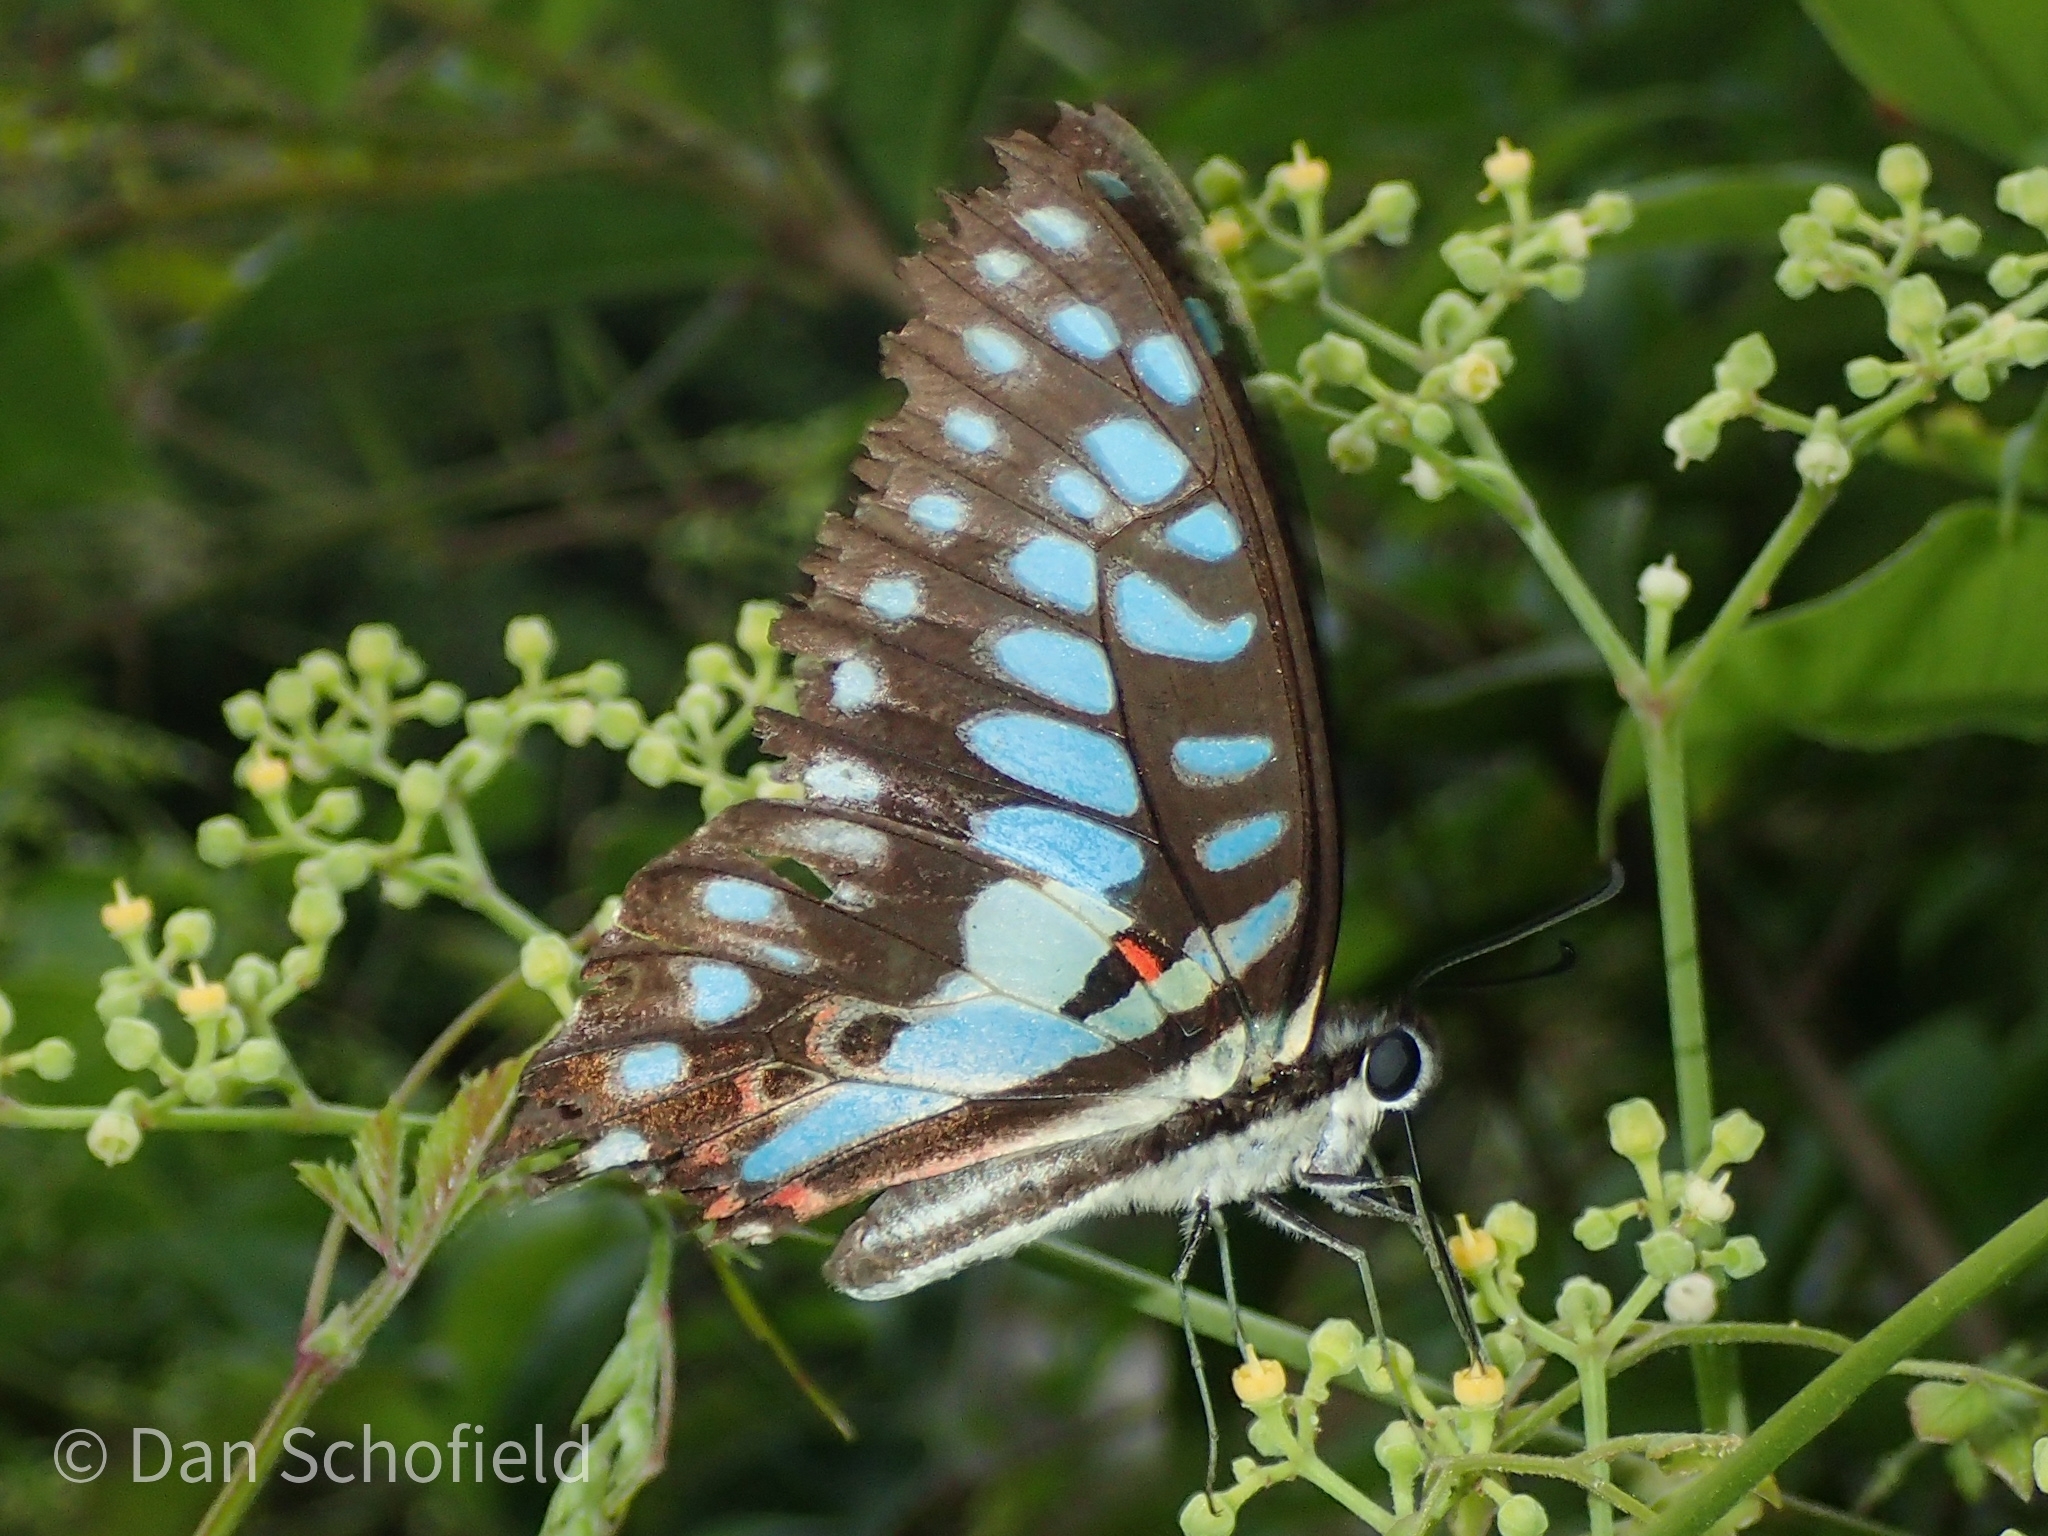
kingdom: Animalia
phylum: Arthropoda
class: Insecta
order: Lepidoptera
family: Papilionidae
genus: Graphium
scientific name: Graphium doson
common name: Common jay
